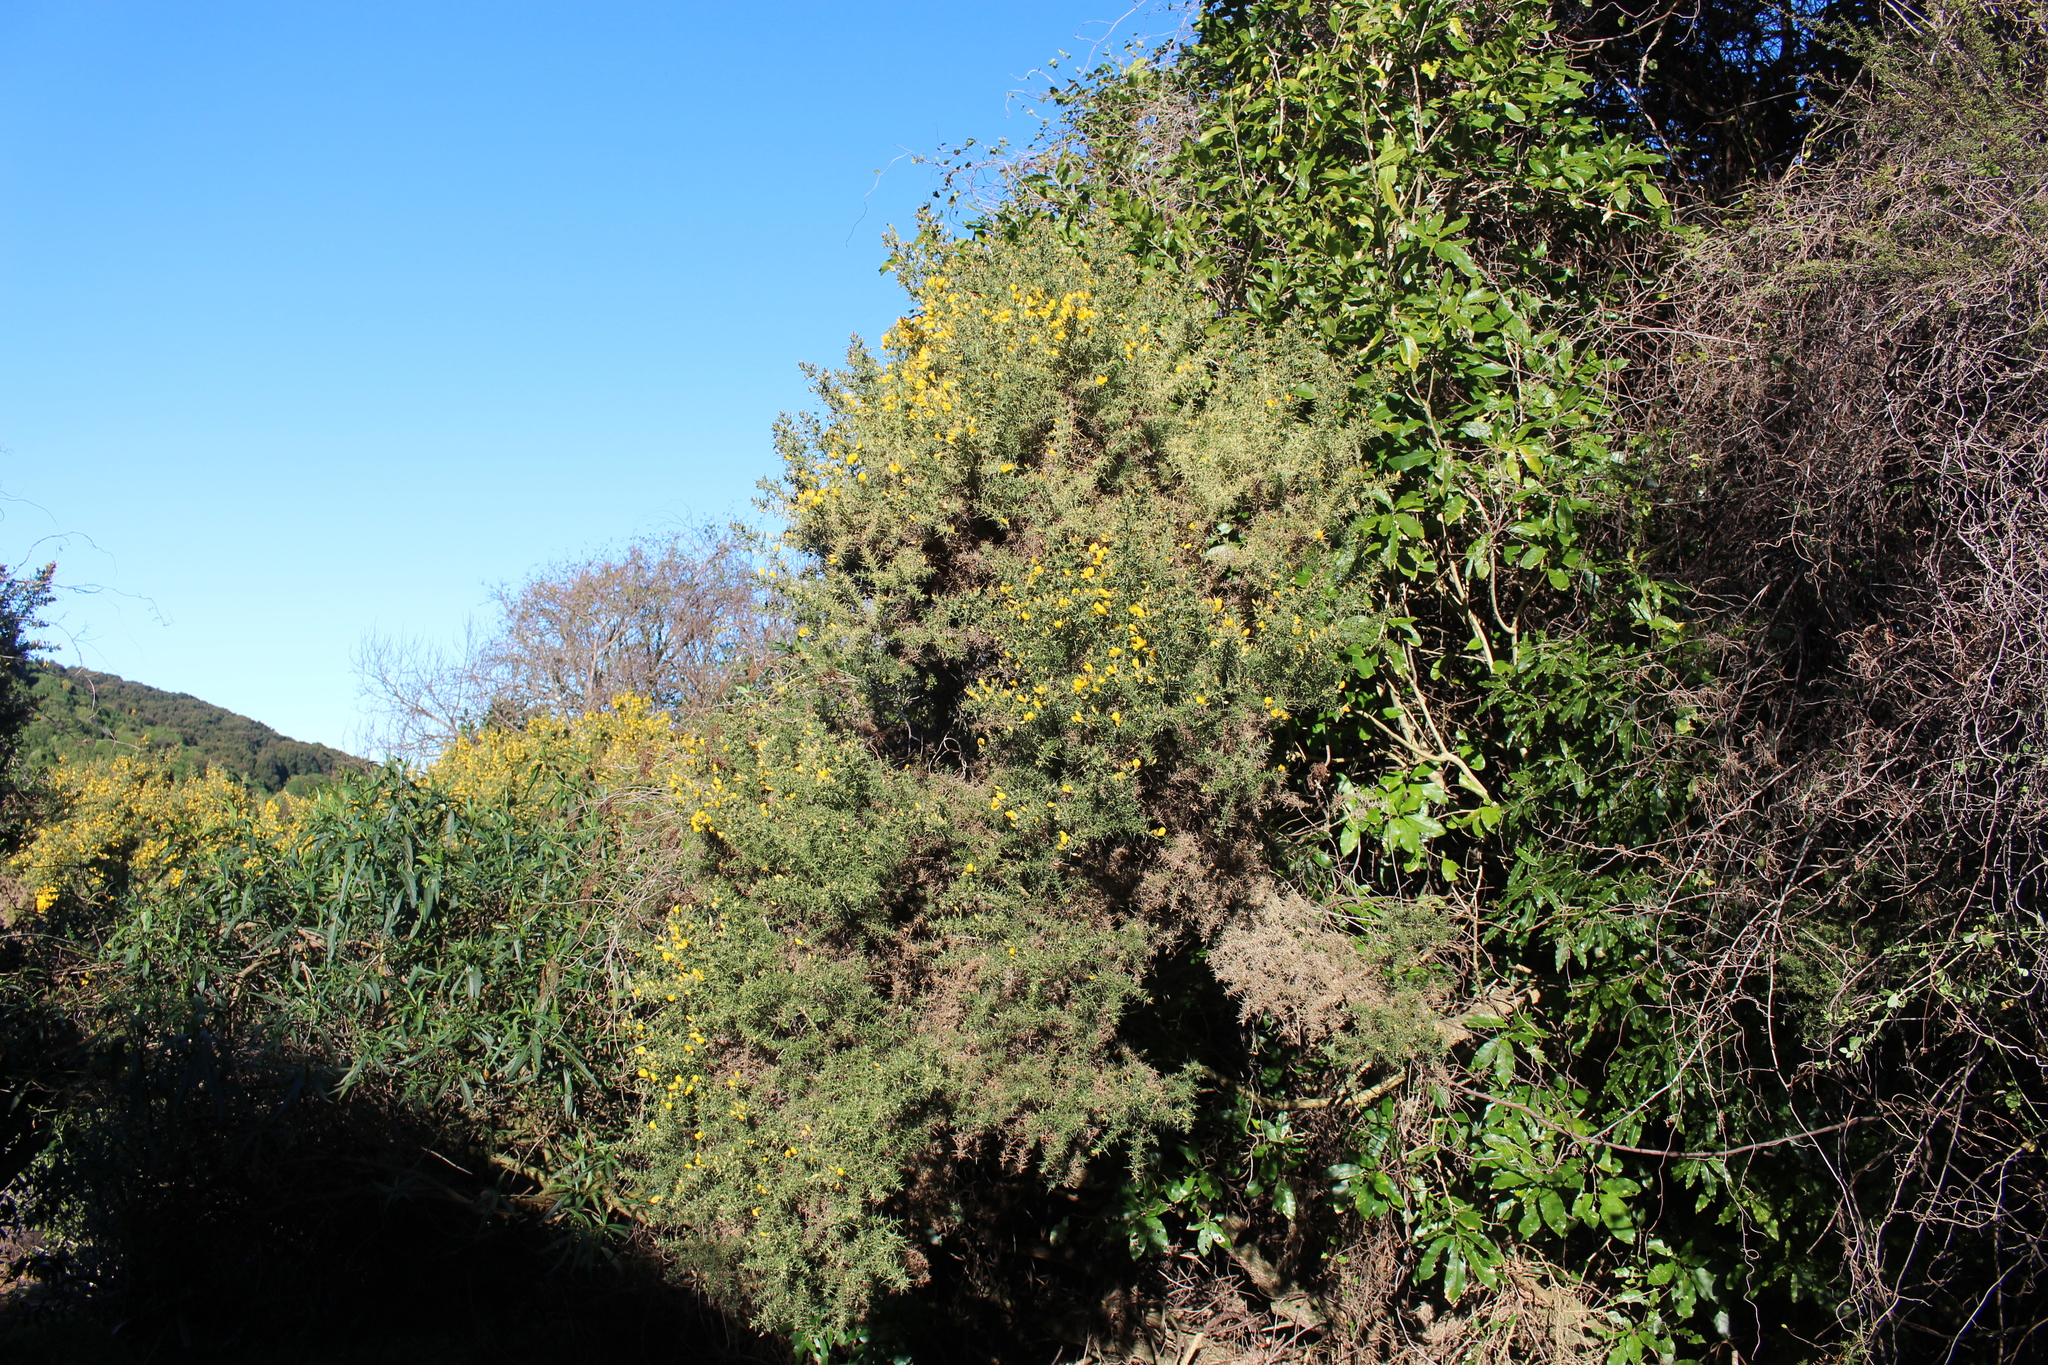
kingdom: Plantae
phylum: Tracheophyta
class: Magnoliopsida
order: Fabales
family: Fabaceae
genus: Ulex
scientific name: Ulex europaeus
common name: Common gorse
